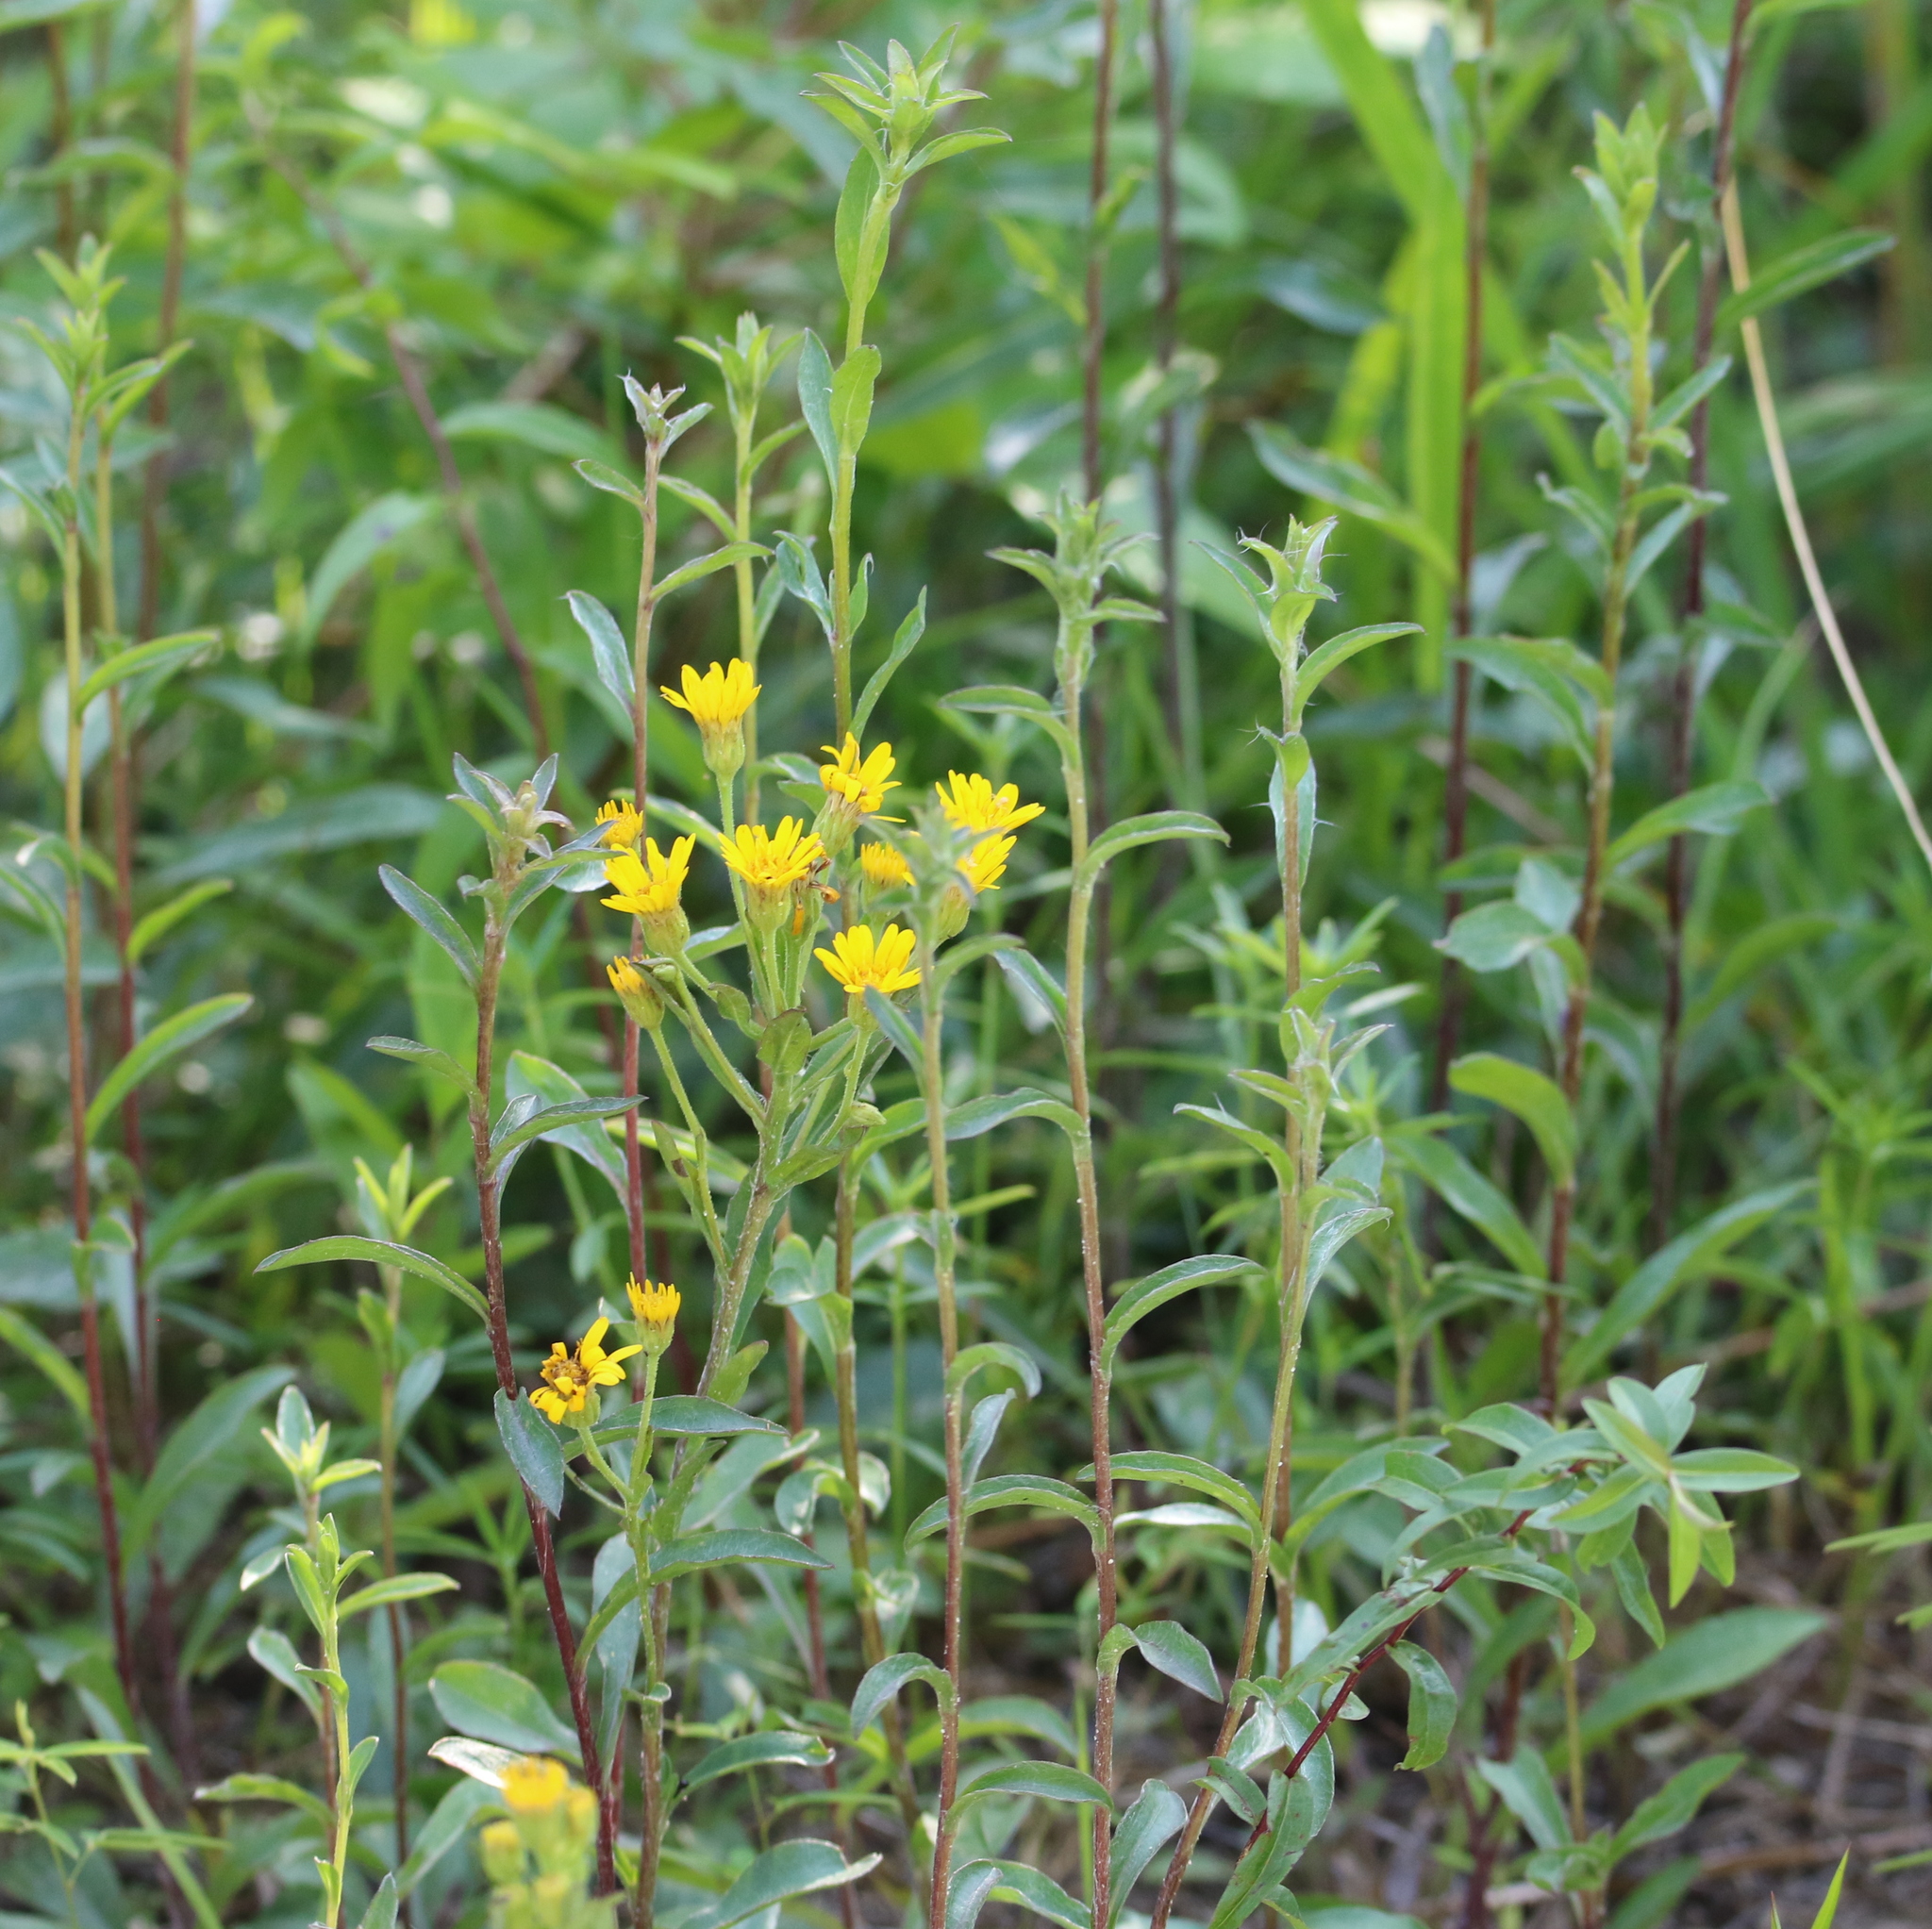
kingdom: Plantae
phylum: Tracheophyta
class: Magnoliopsida
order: Asterales
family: Asteraceae
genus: Chrysopsis
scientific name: Chrysopsis mariana
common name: Maryland golden-aster
